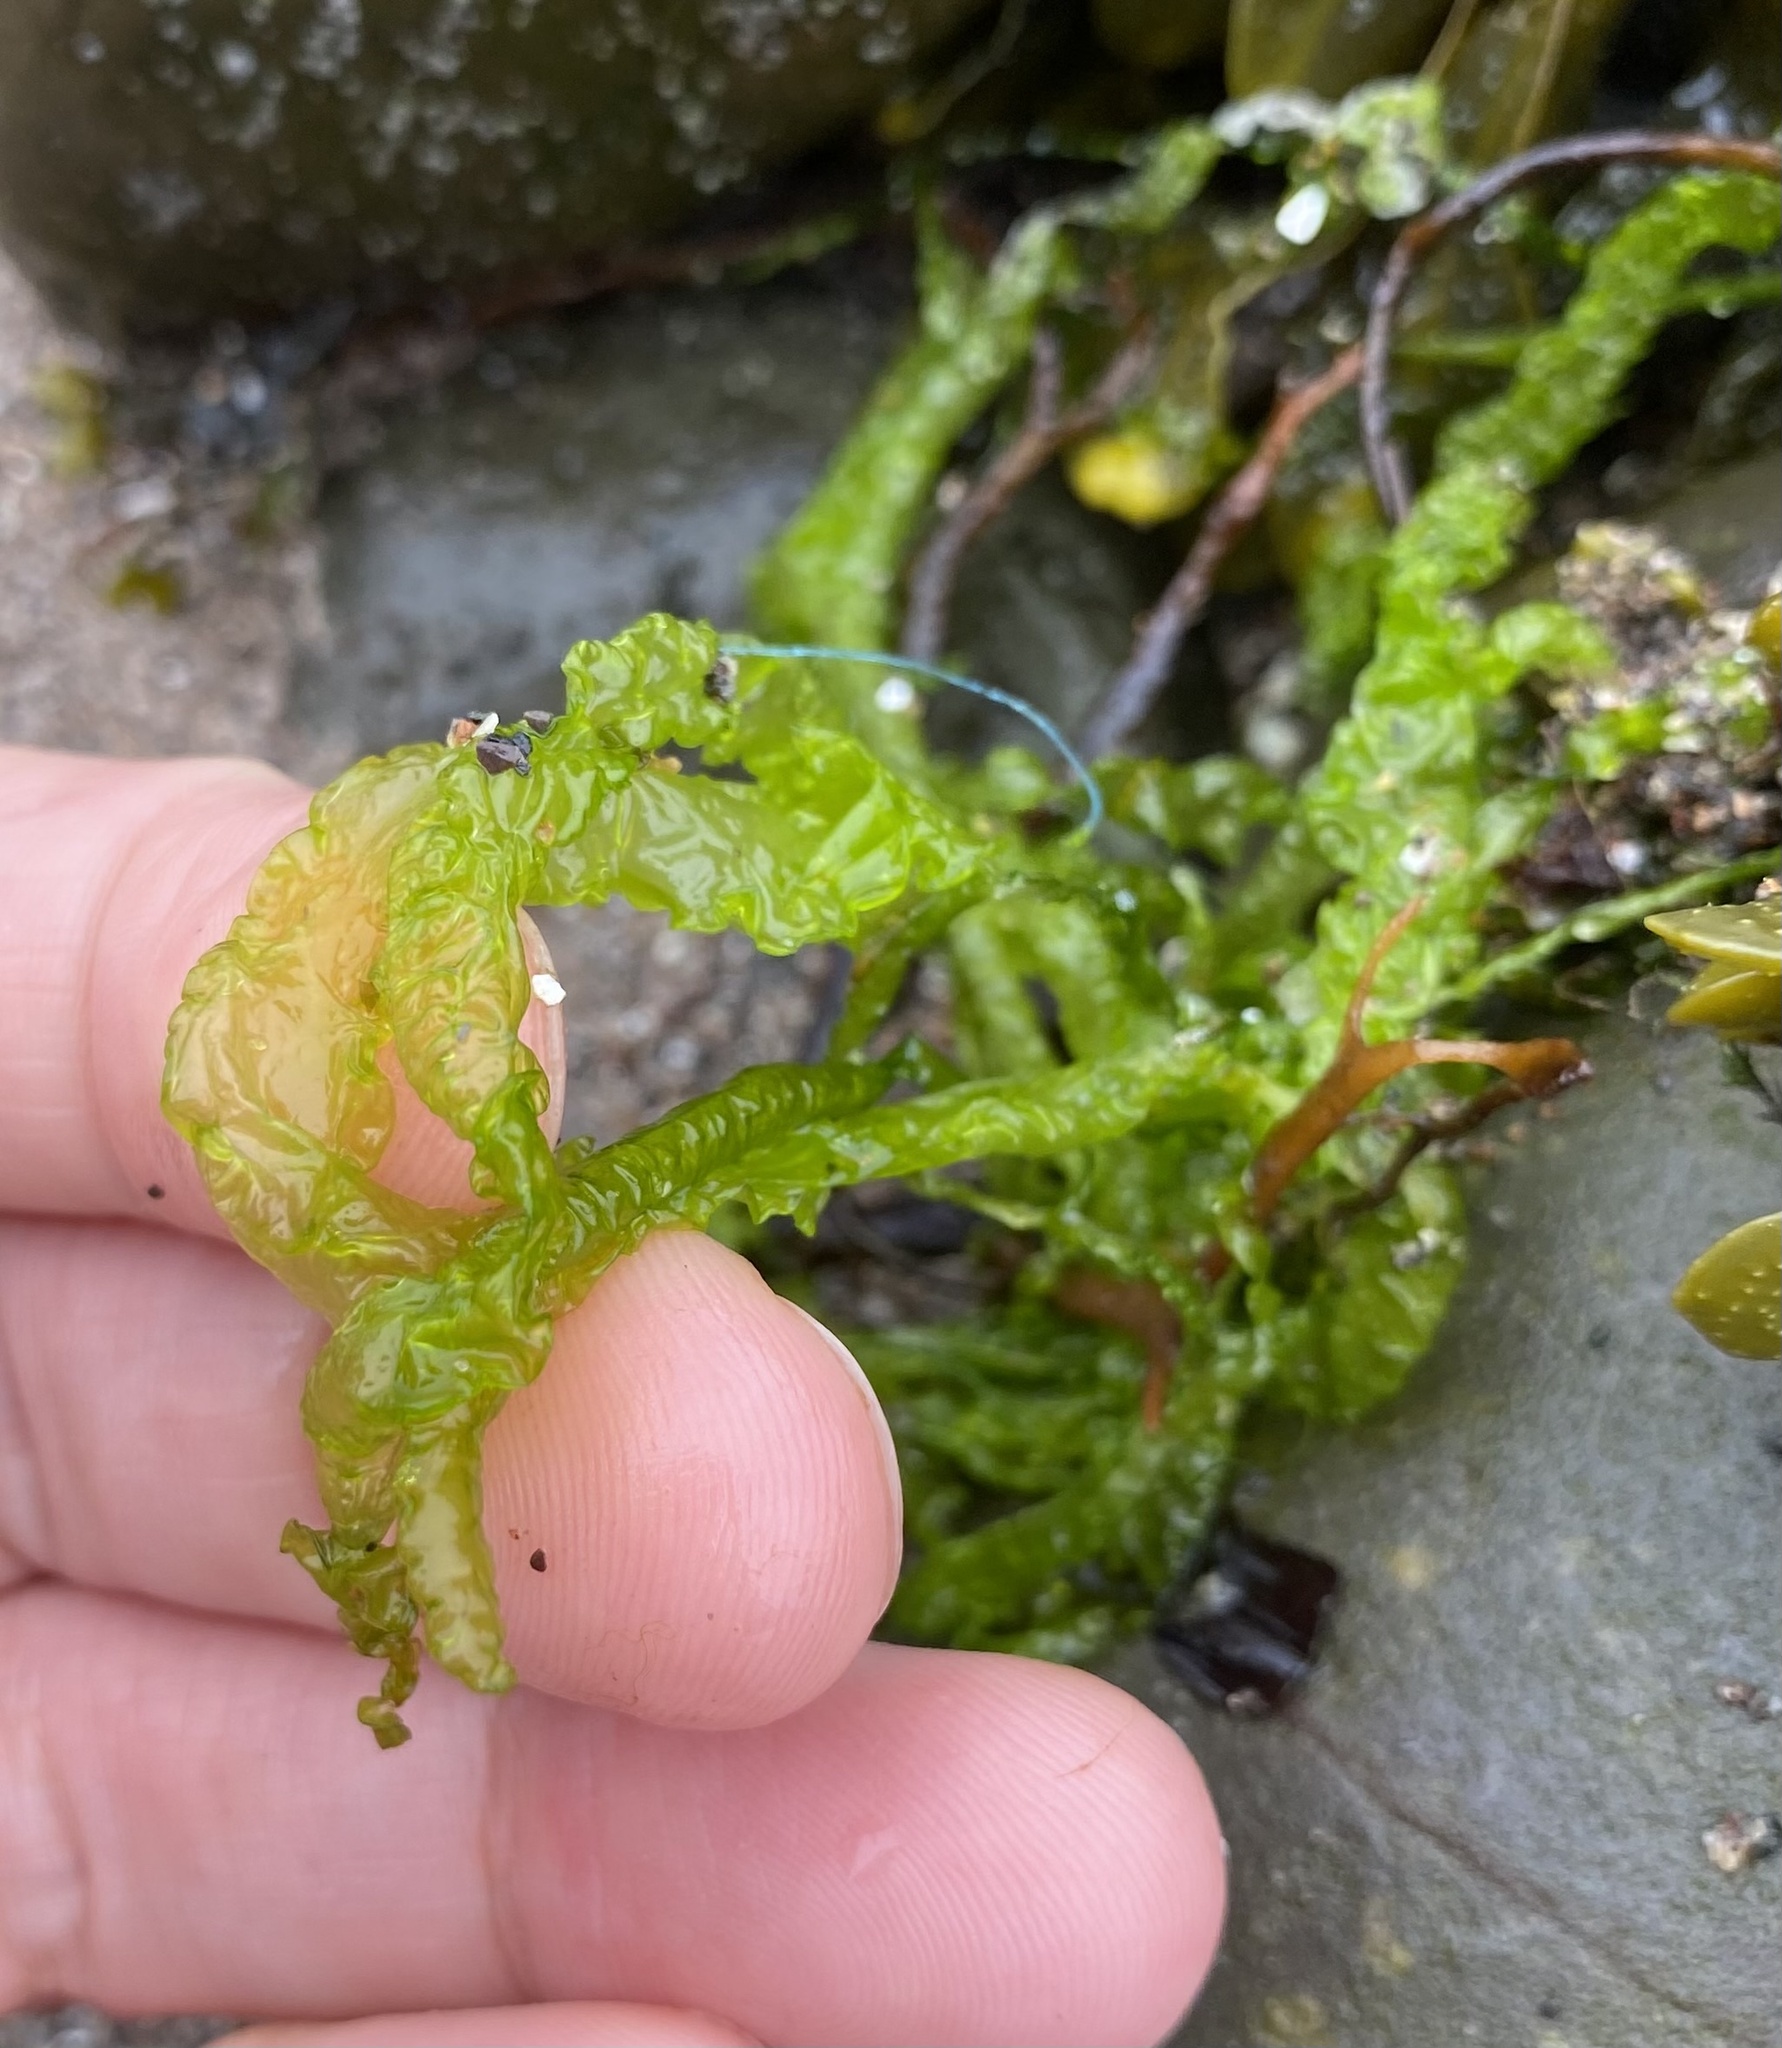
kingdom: Plantae
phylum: Chlorophyta
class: Ulvophyceae
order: Ulvales
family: Ulvaceae
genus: Ulva
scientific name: Ulva intestinalis
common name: Gut weed
